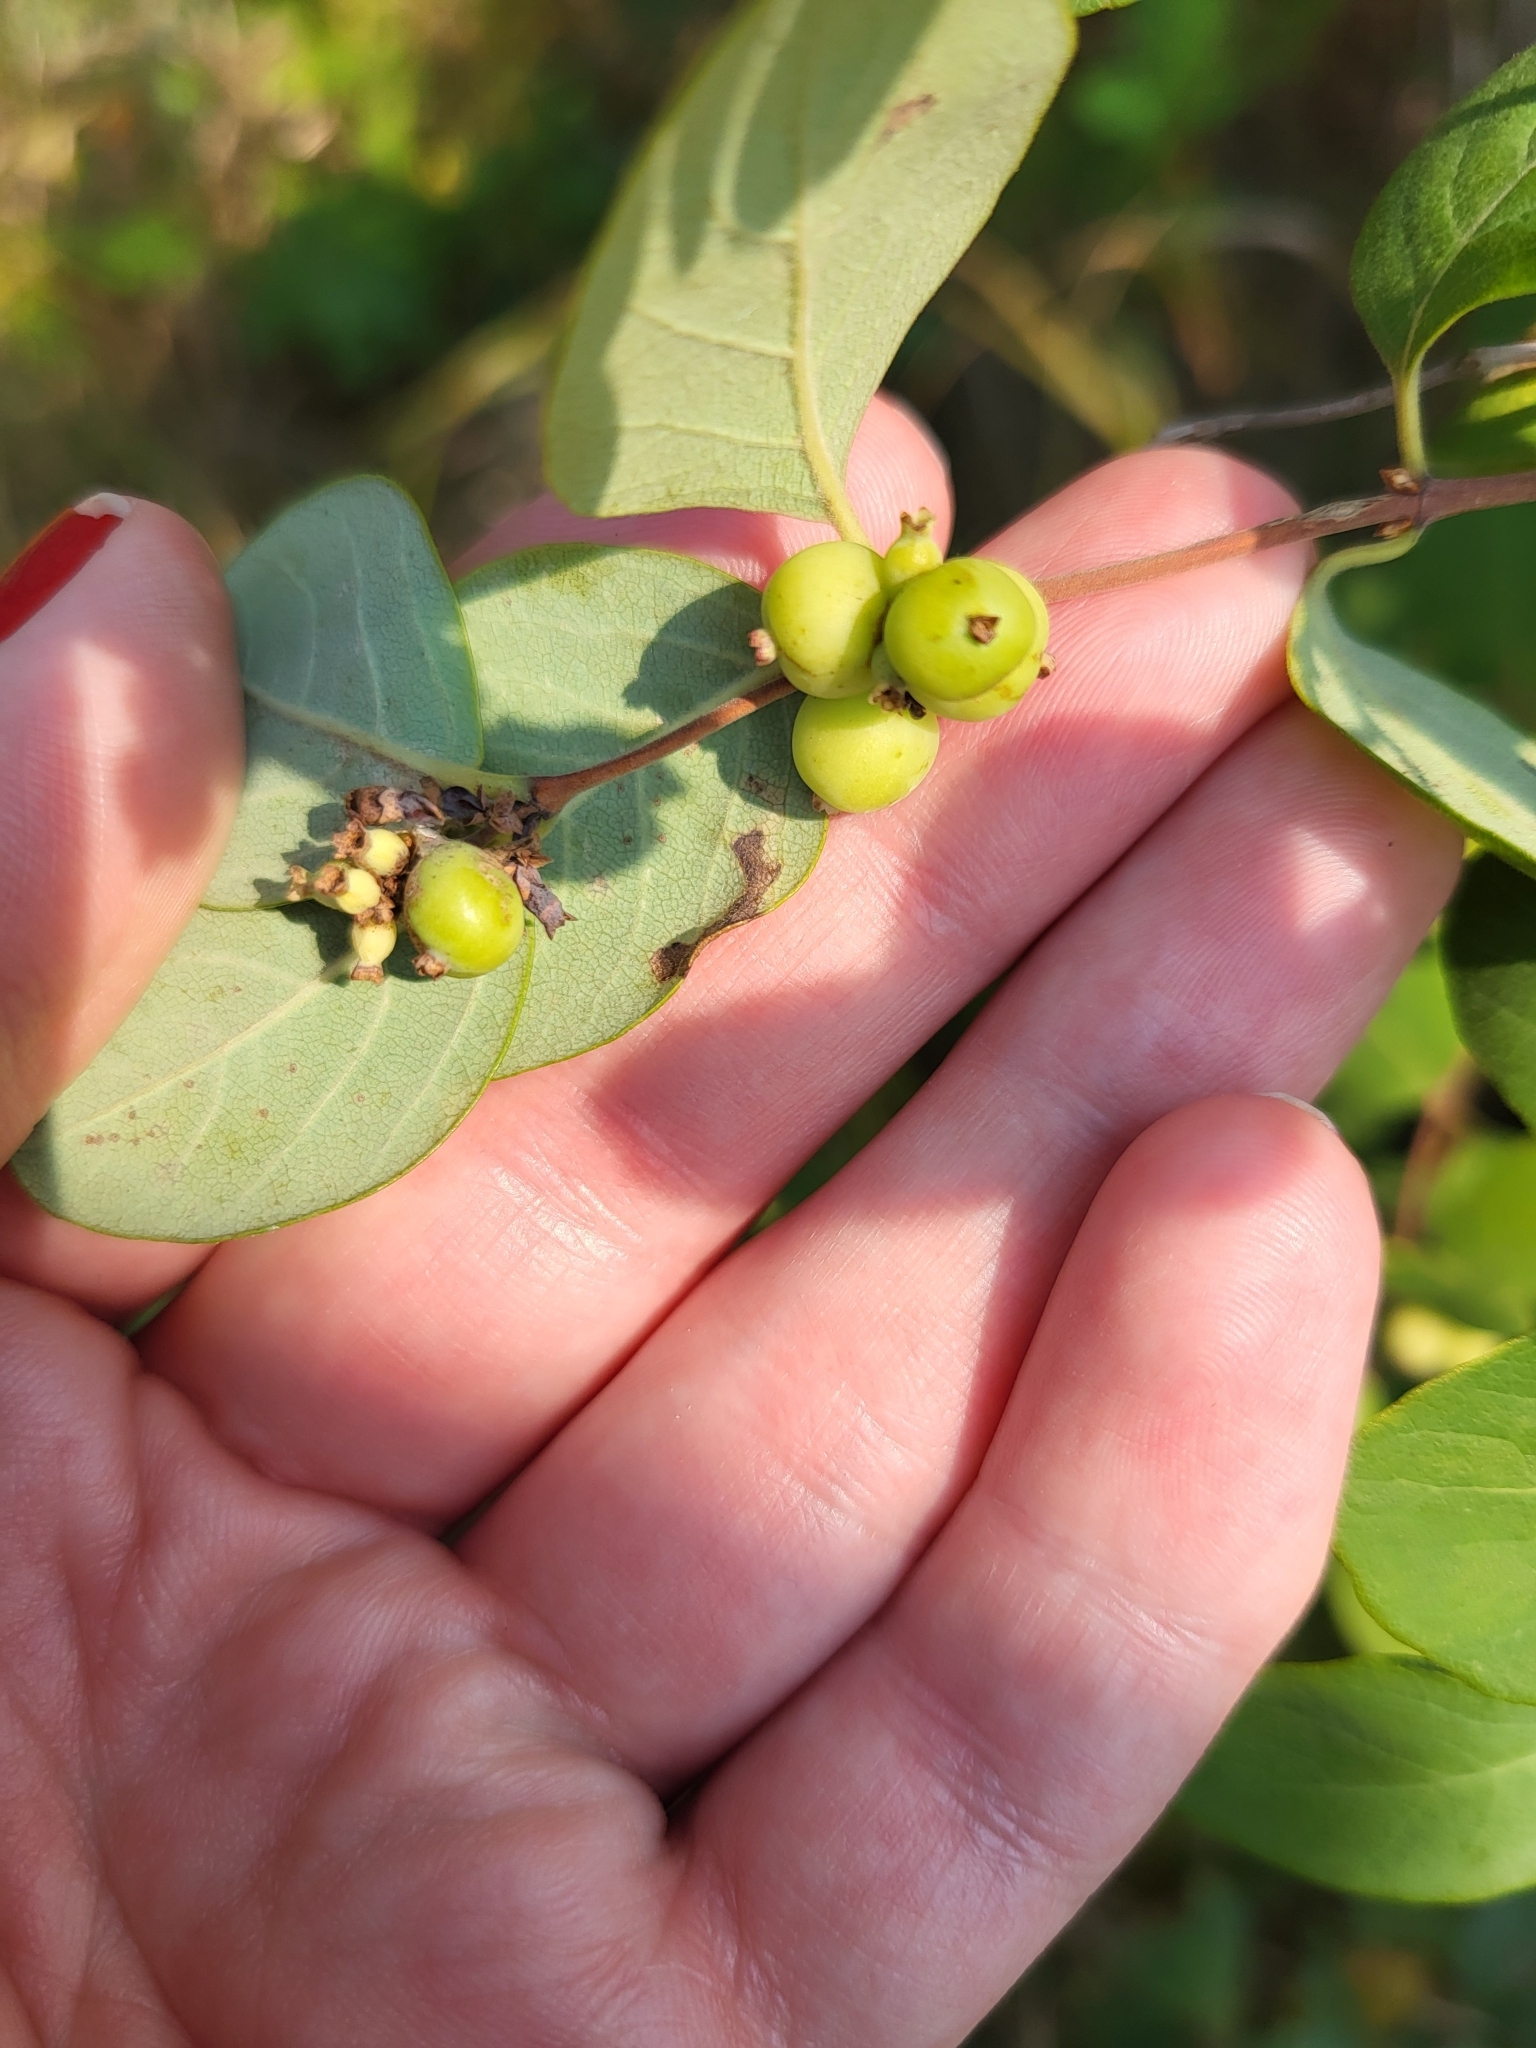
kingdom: Plantae
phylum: Tracheophyta
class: Magnoliopsida
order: Dipsacales
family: Caprifoliaceae
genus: Symphoricarpos
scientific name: Symphoricarpos occidentalis
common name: Wolfberry
